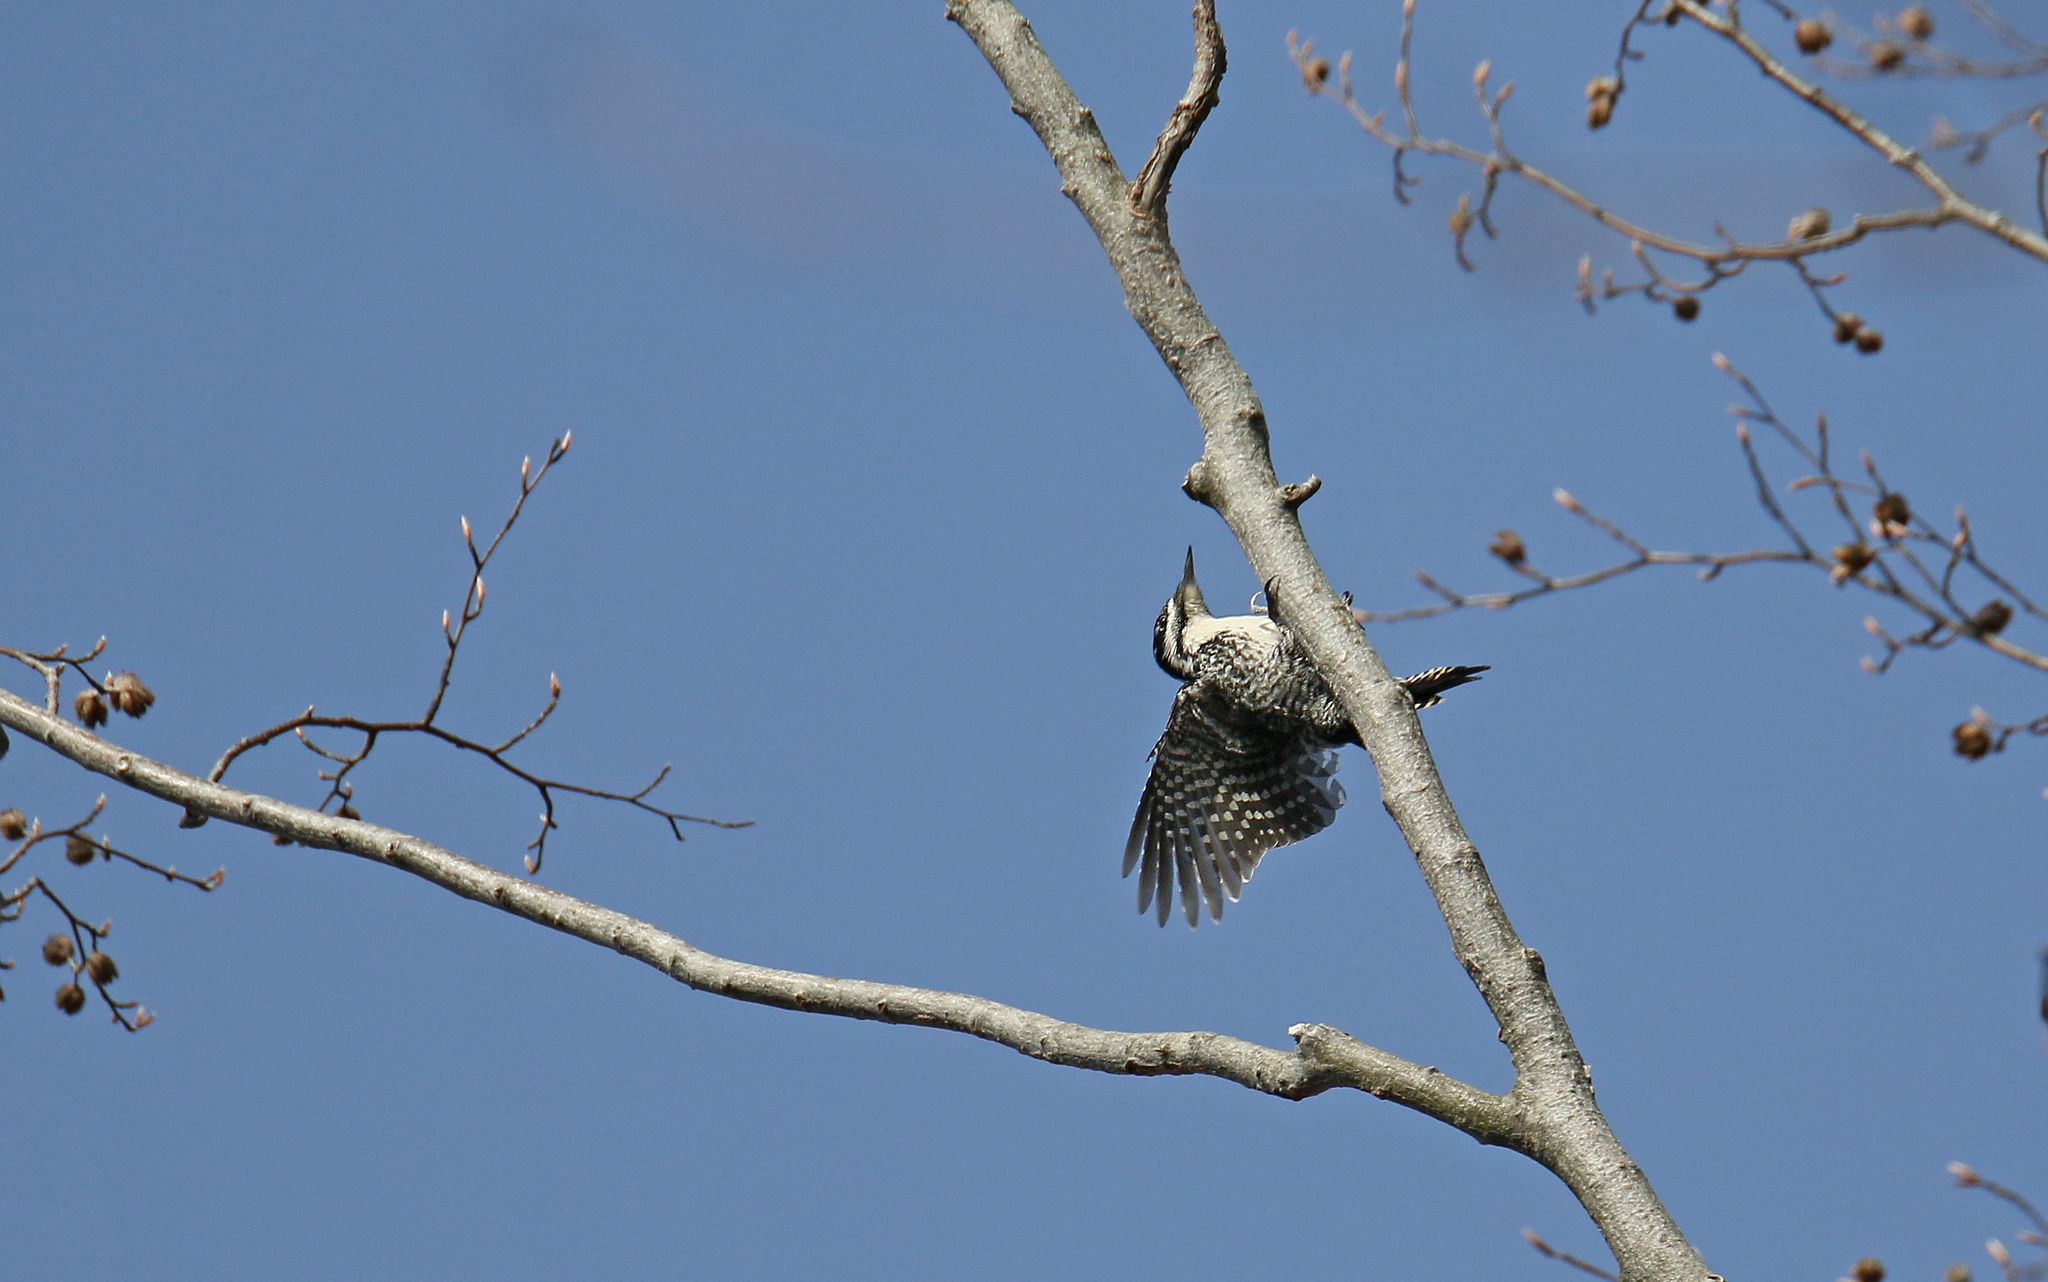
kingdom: Animalia
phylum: Chordata
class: Aves
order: Piciformes
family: Picidae
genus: Picoides
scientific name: Picoides tridactylus
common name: Eurasian three-toed woodpecker
